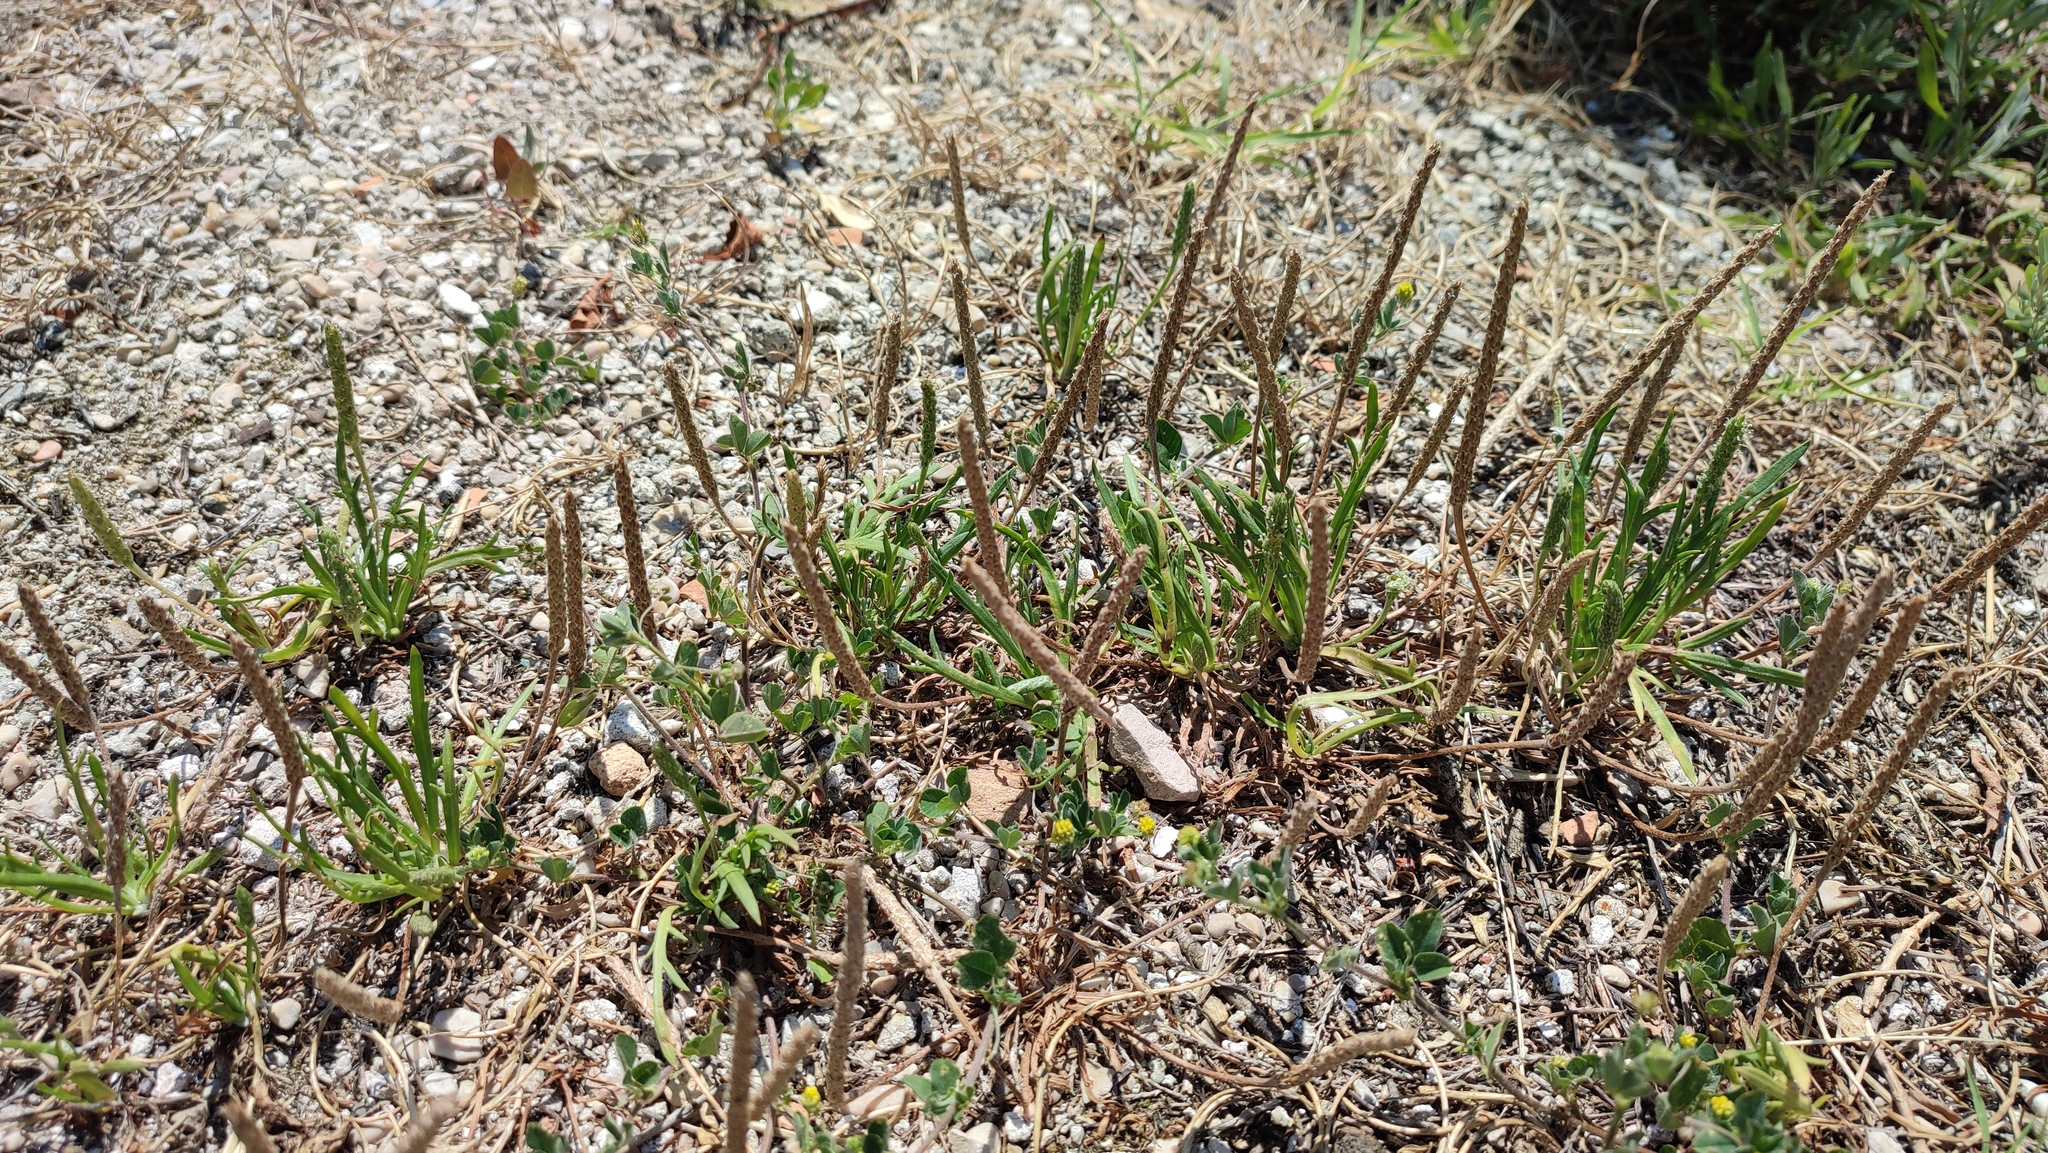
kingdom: Plantae
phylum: Tracheophyta
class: Magnoliopsida
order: Lamiales
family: Plantaginaceae
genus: Plantago
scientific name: Plantago coronopus
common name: Buck's-horn plantain
